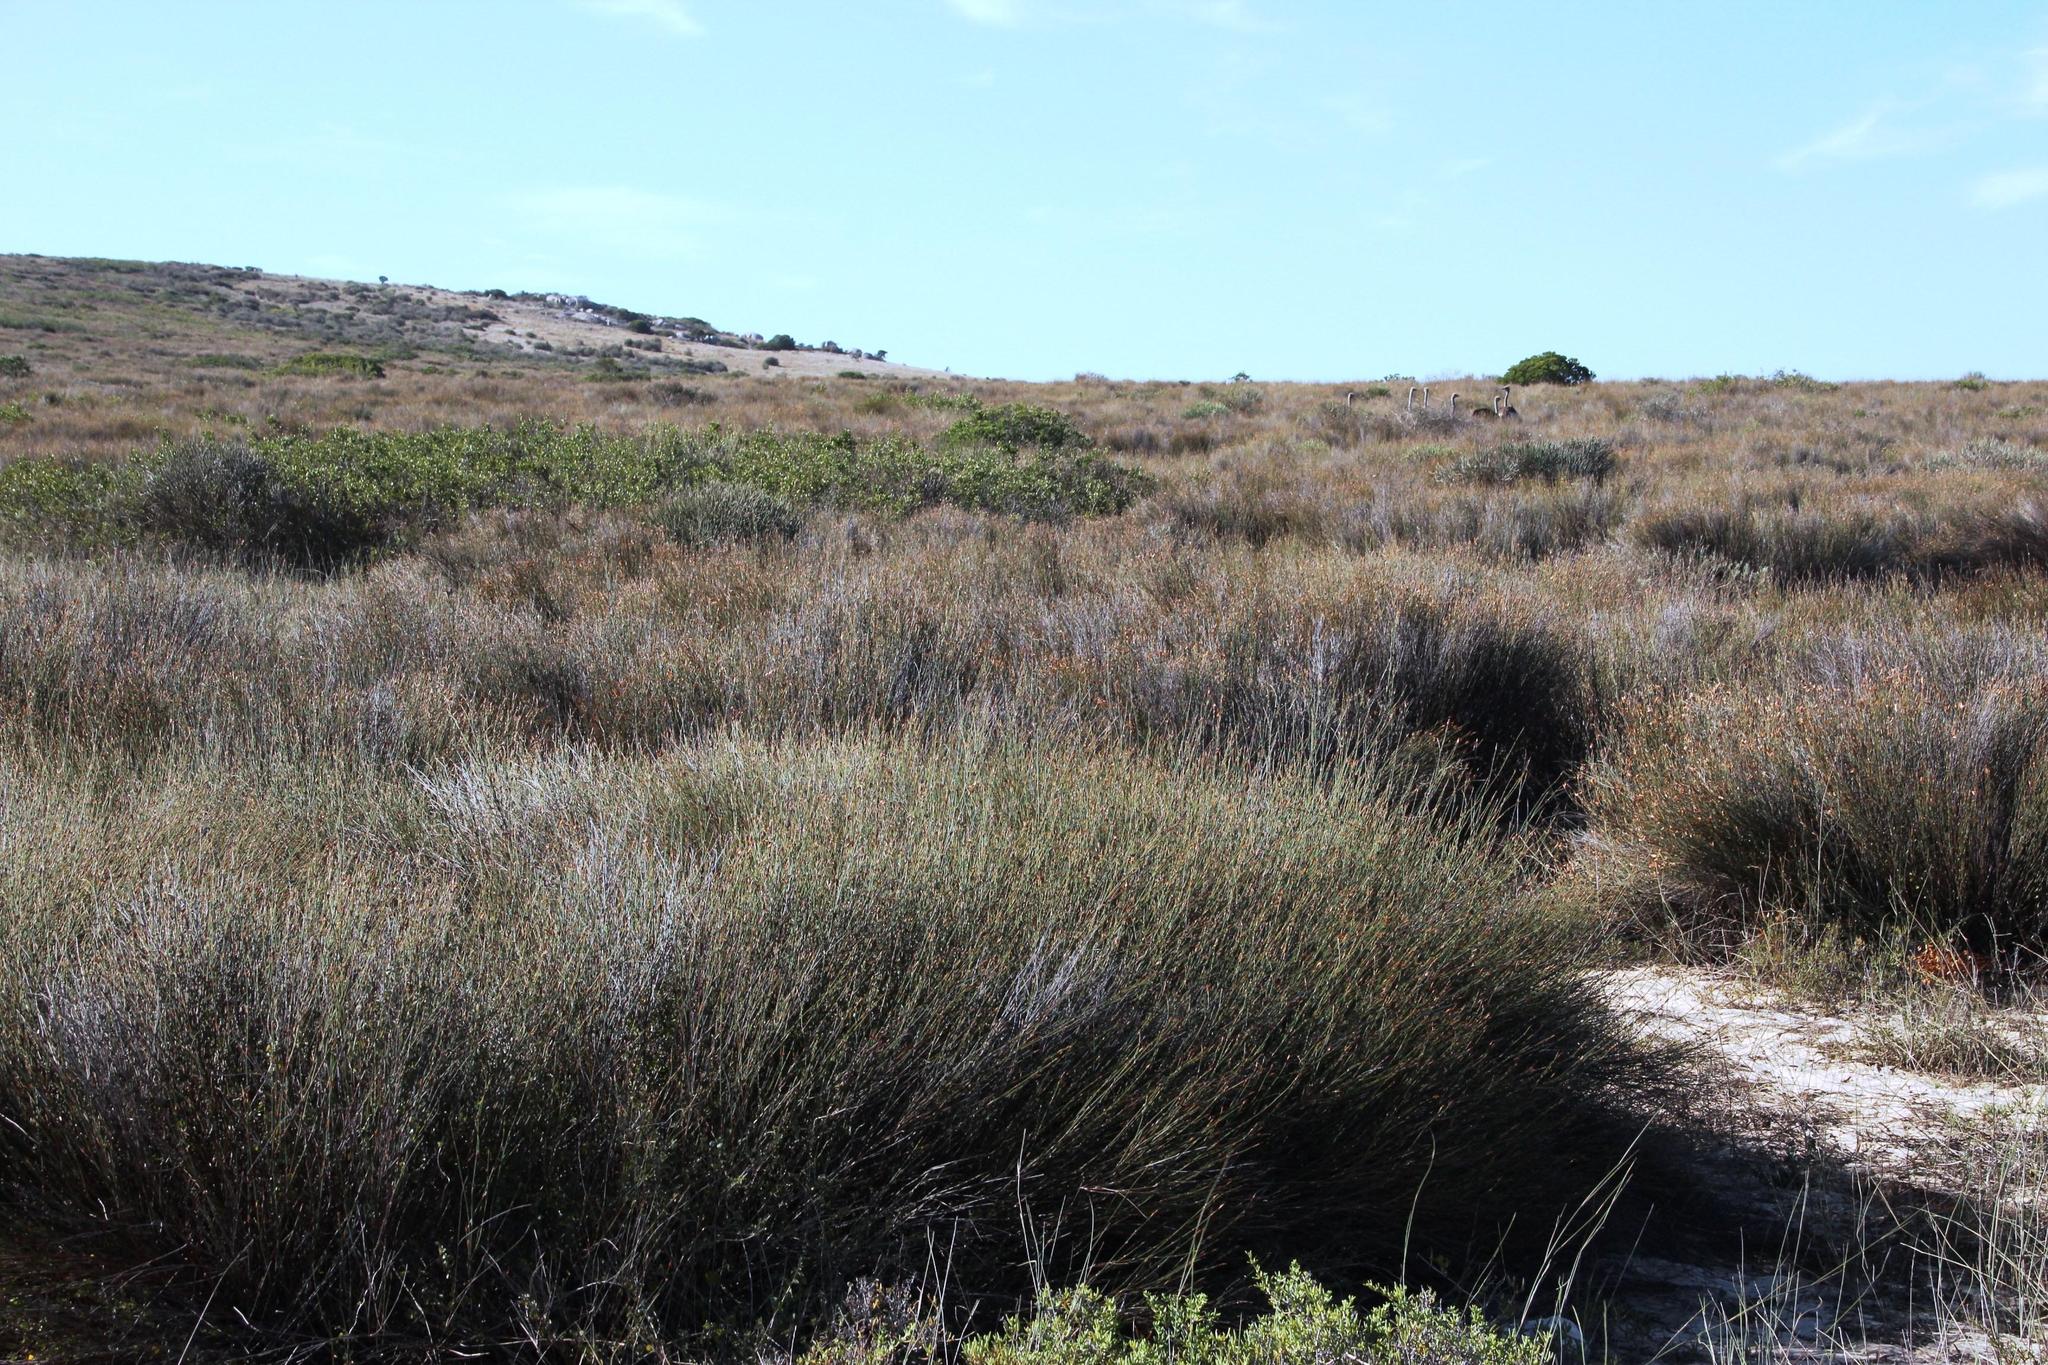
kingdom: Plantae
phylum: Tracheophyta
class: Liliopsida
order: Poales
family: Restionaceae
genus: Willdenowia
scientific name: Willdenowia incurvata
